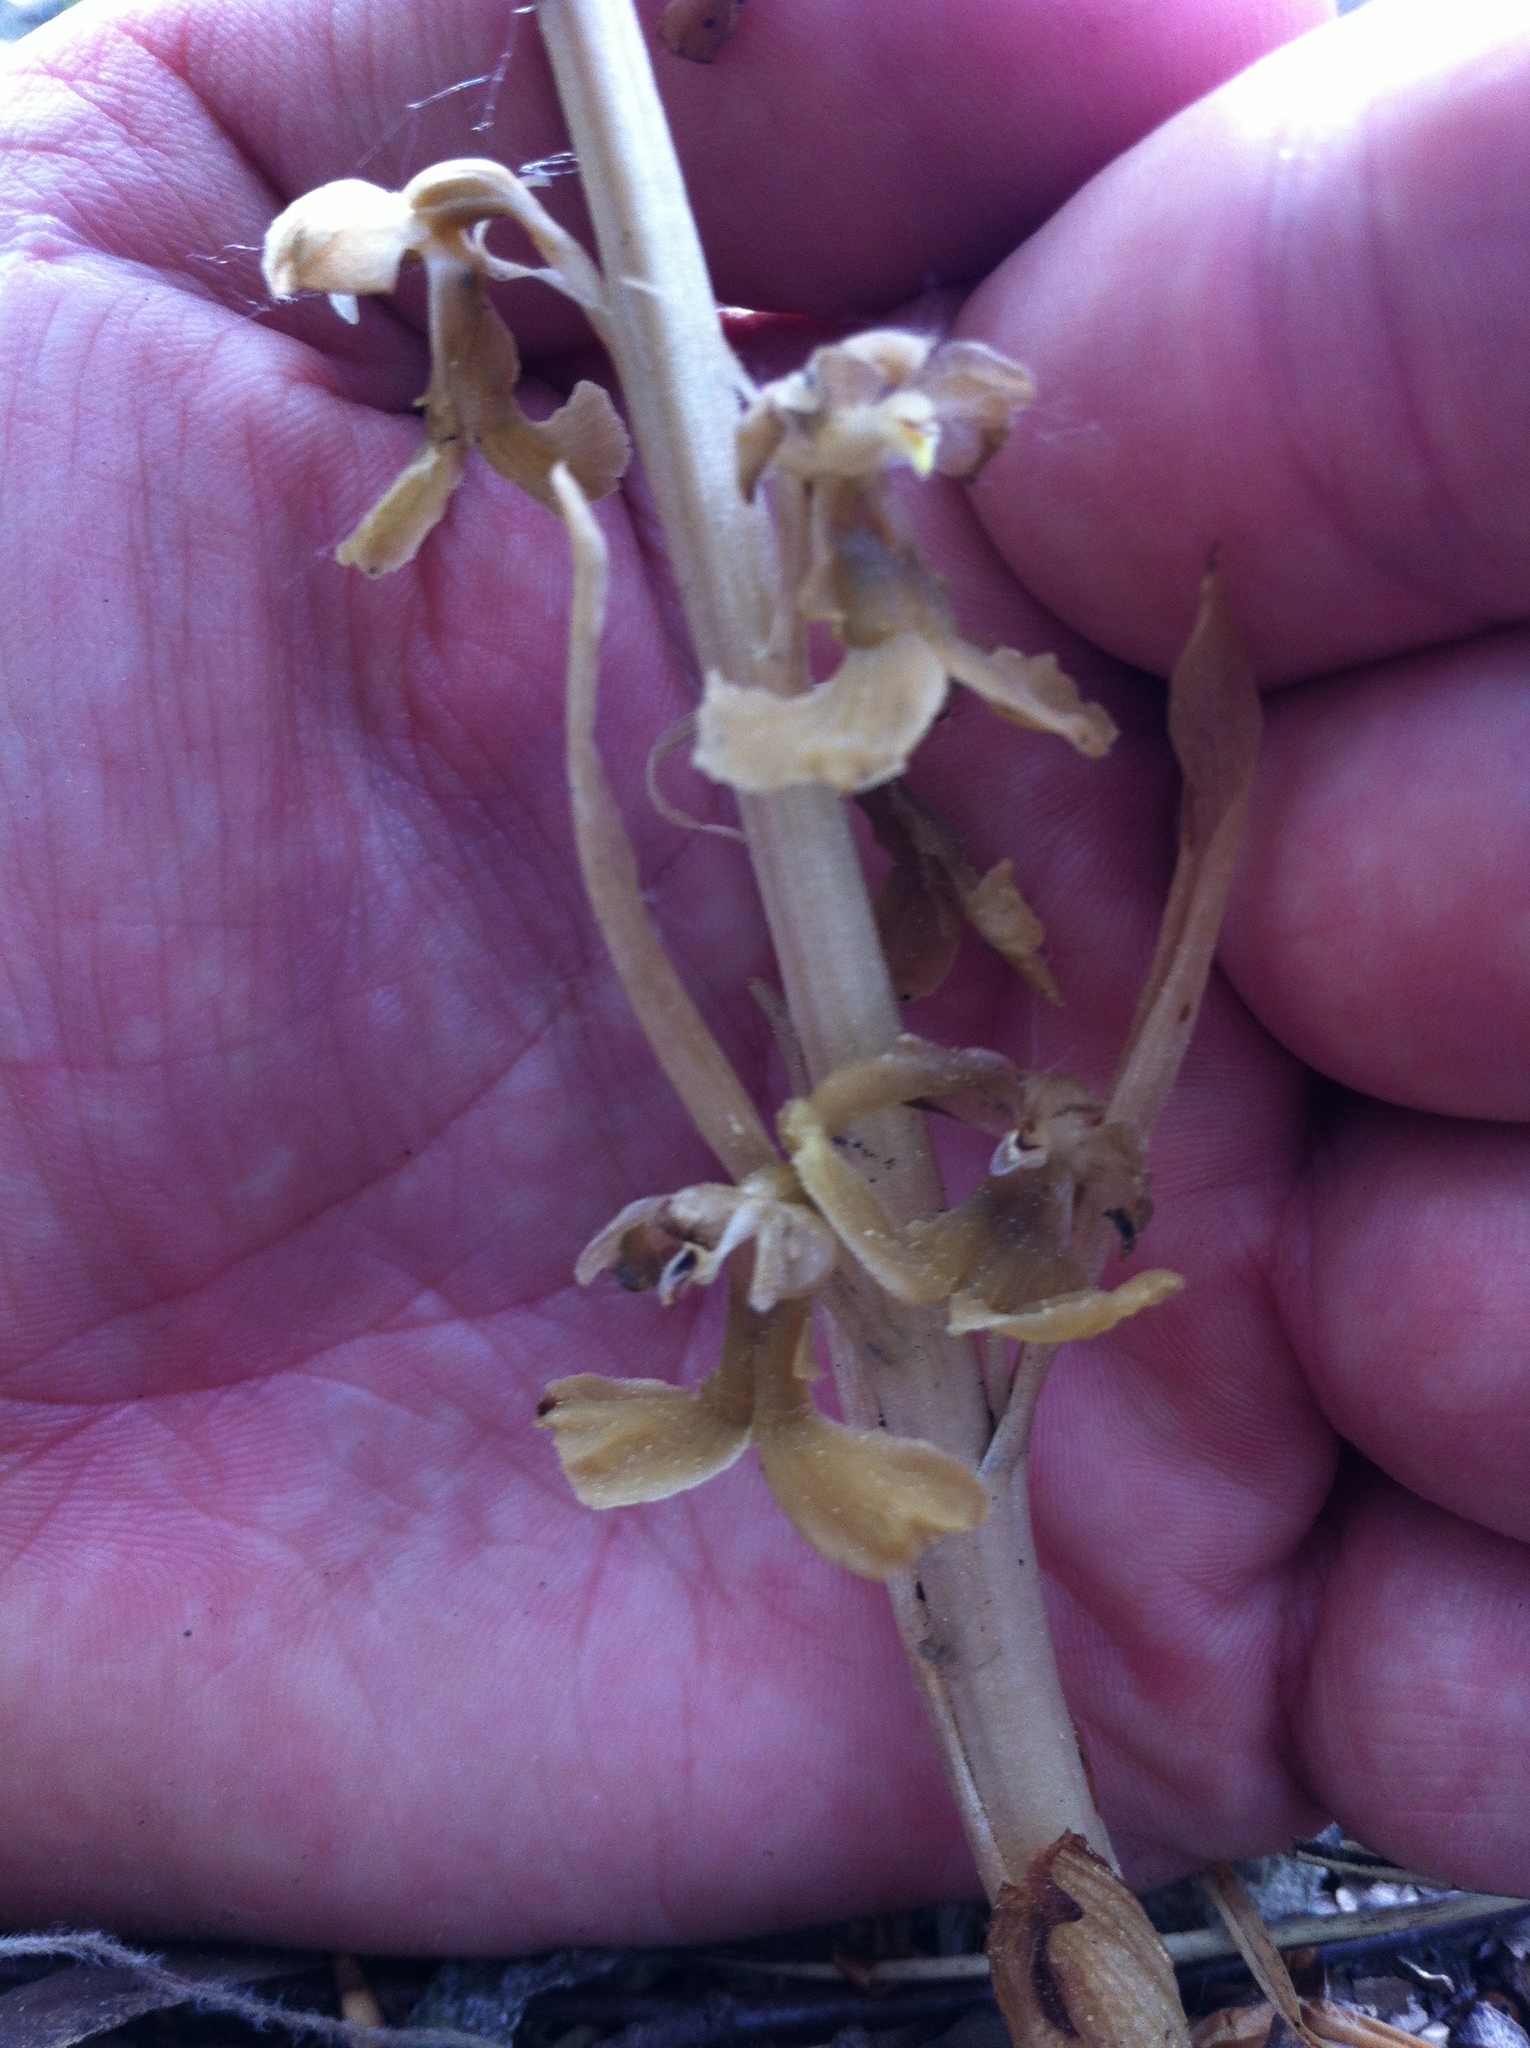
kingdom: Plantae
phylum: Tracheophyta
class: Liliopsida
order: Asparagales
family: Orchidaceae
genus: Neottia
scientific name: Neottia nidus-avis
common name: Bird's-nest orchid
